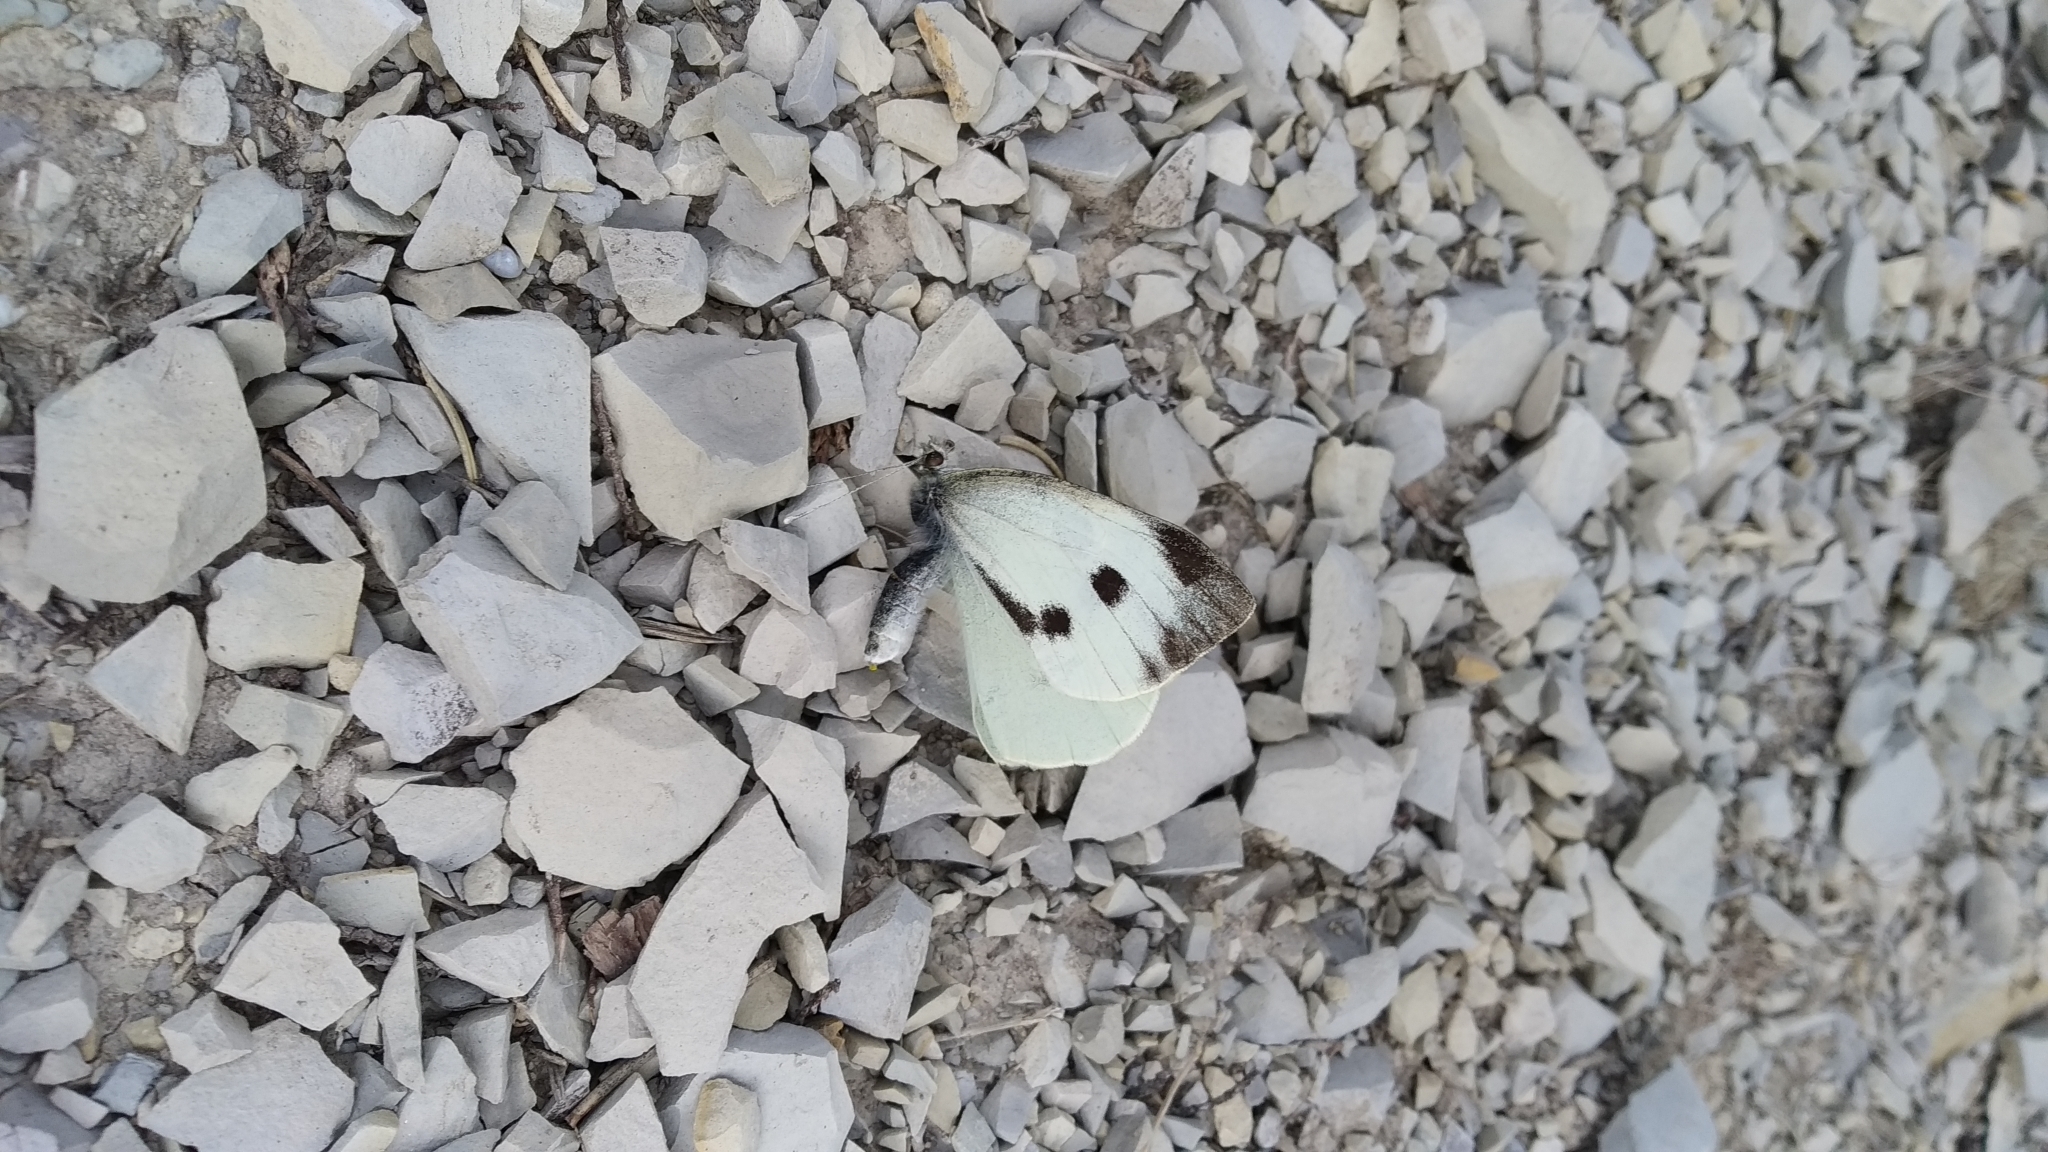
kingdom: Animalia
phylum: Arthropoda
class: Insecta
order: Lepidoptera
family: Pieridae
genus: Pieris
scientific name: Pieris brassicae
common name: Large white
